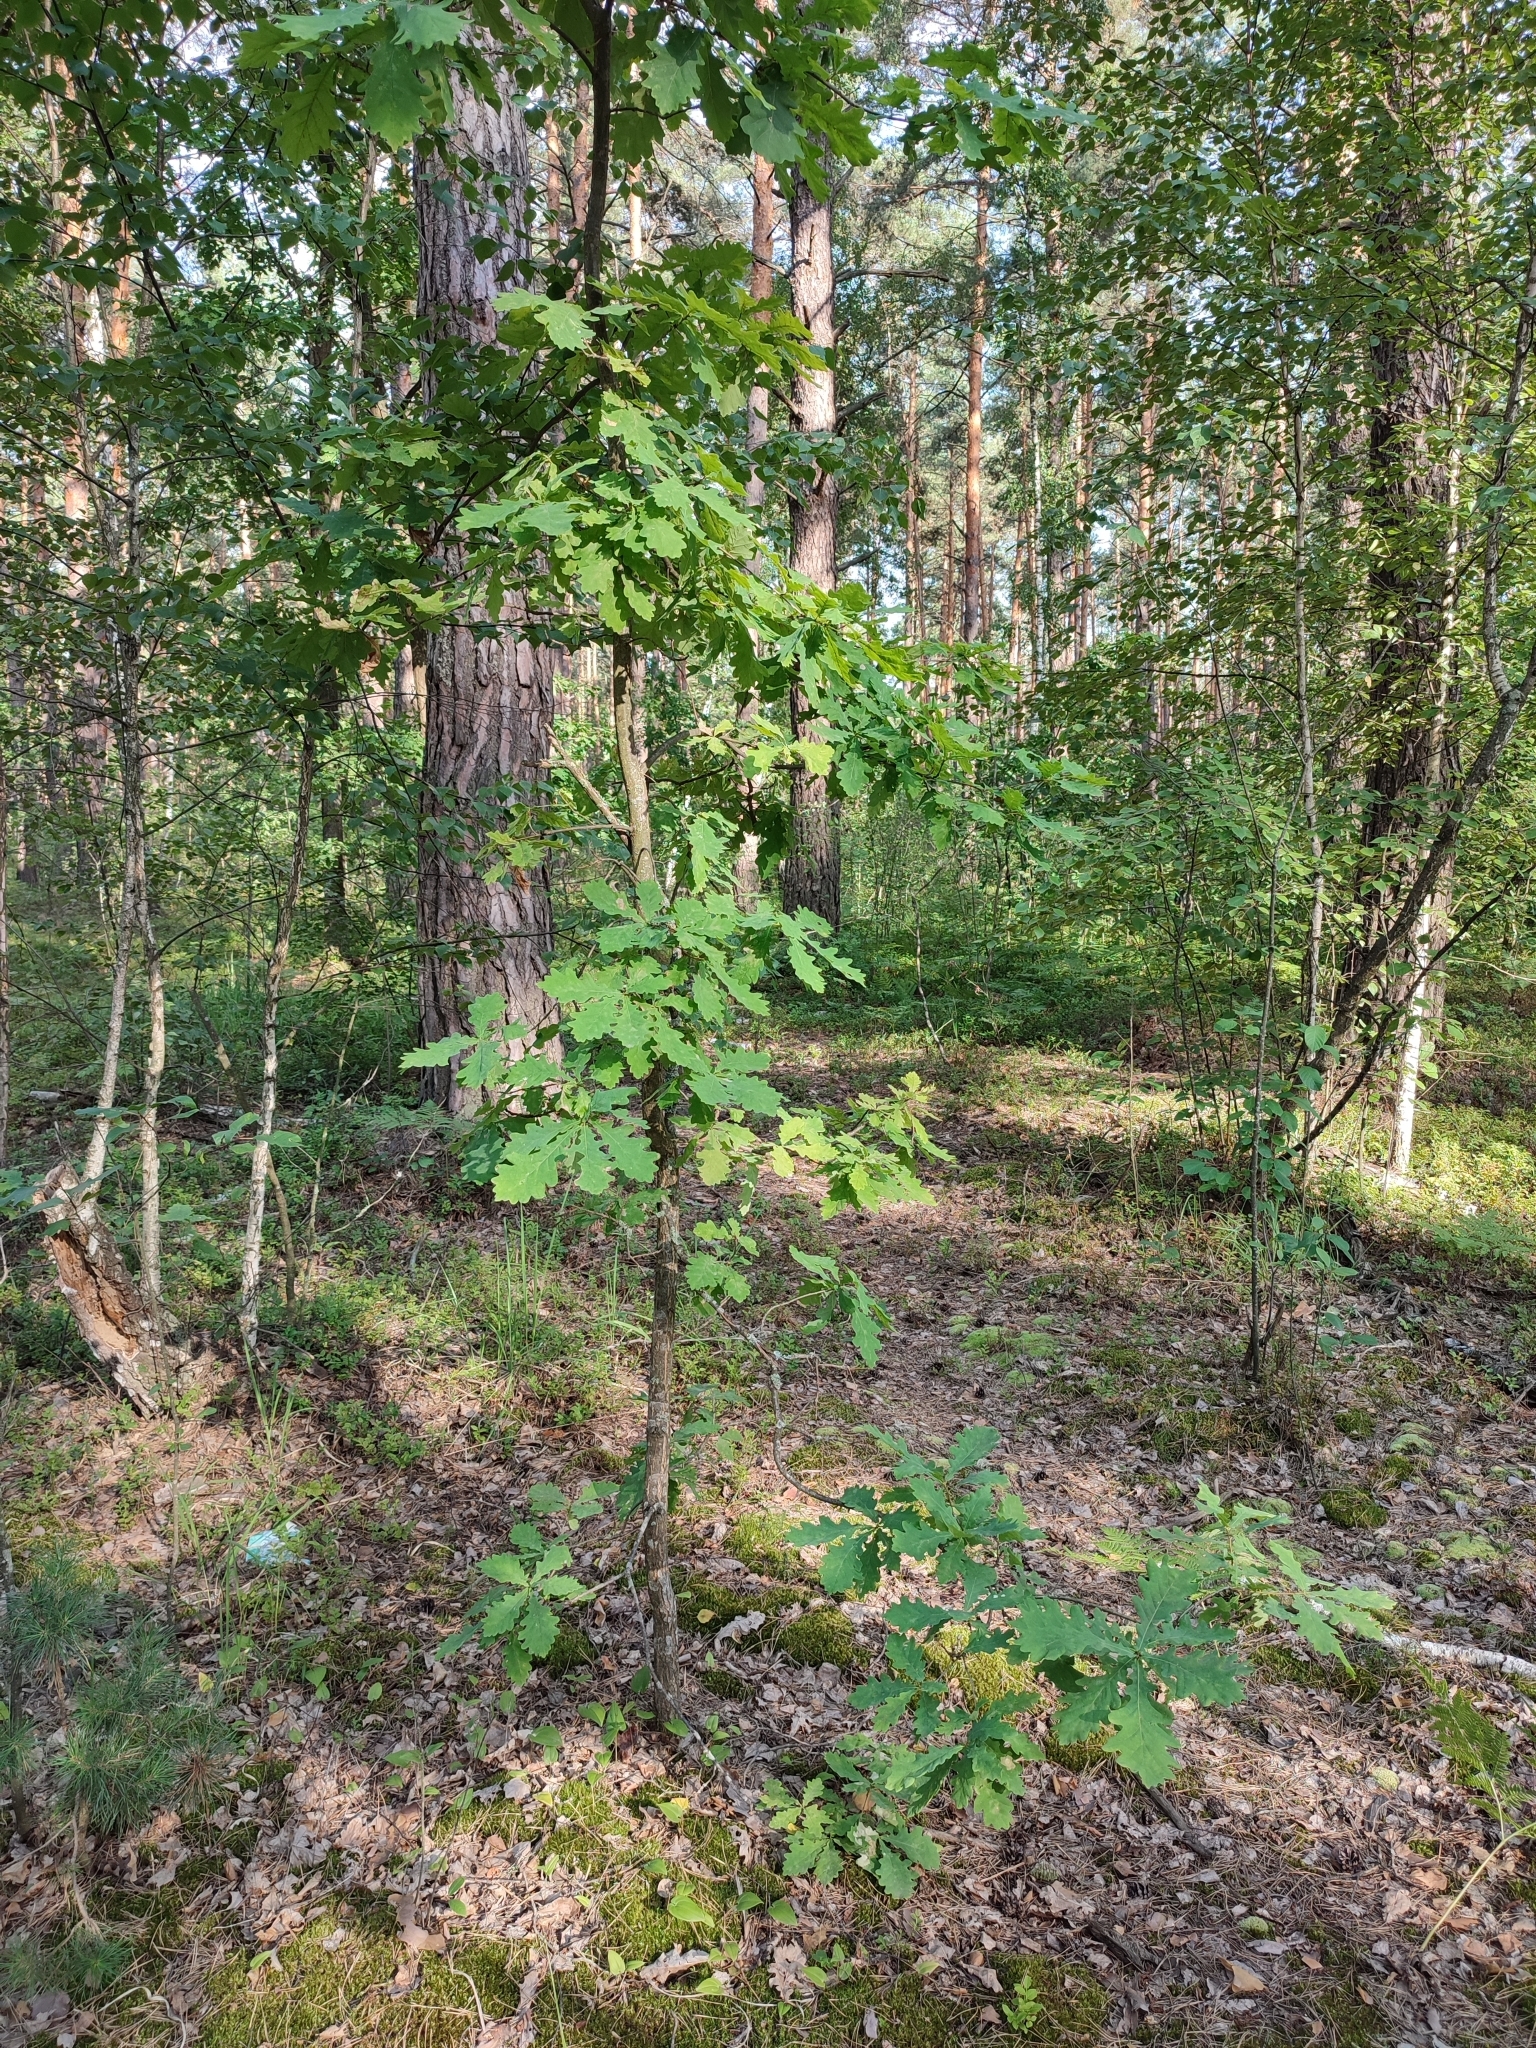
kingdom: Plantae
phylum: Tracheophyta
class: Magnoliopsida
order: Fagales
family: Fagaceae
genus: Quercus
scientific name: Quercus robur
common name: Pedunculate oak
